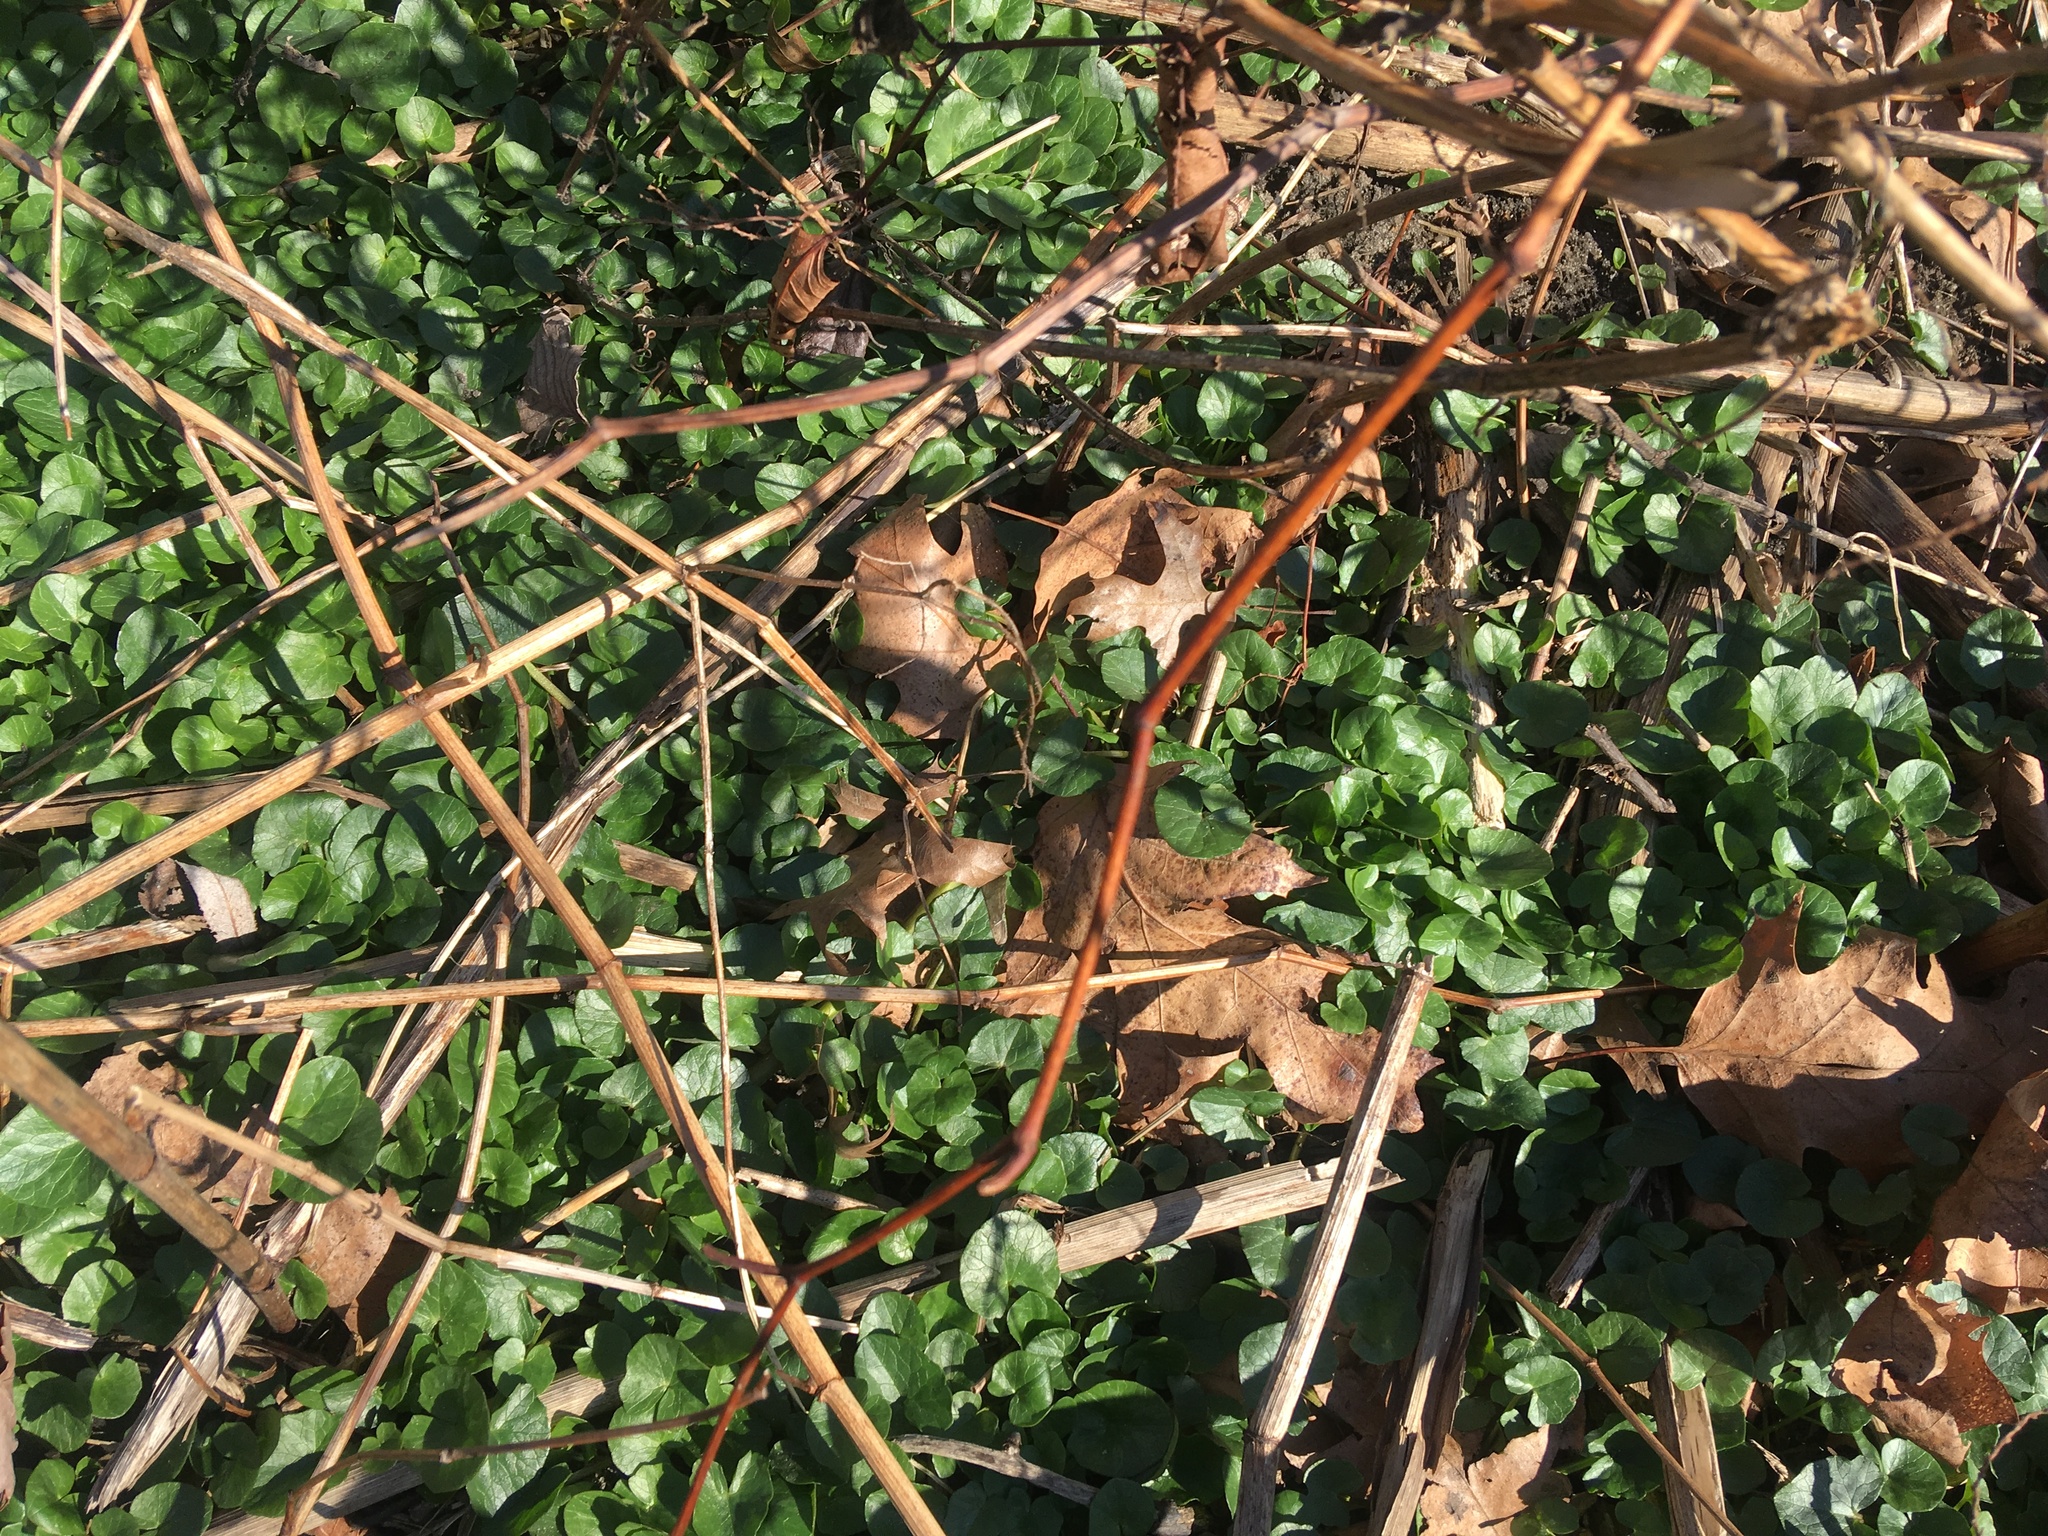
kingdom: Plantae
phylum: Tracheophyta
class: Magnoliopsida
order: Ranunculales
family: Ranunculaceae
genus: Ficaria
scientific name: Ficaria verna
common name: Lesser celandine
